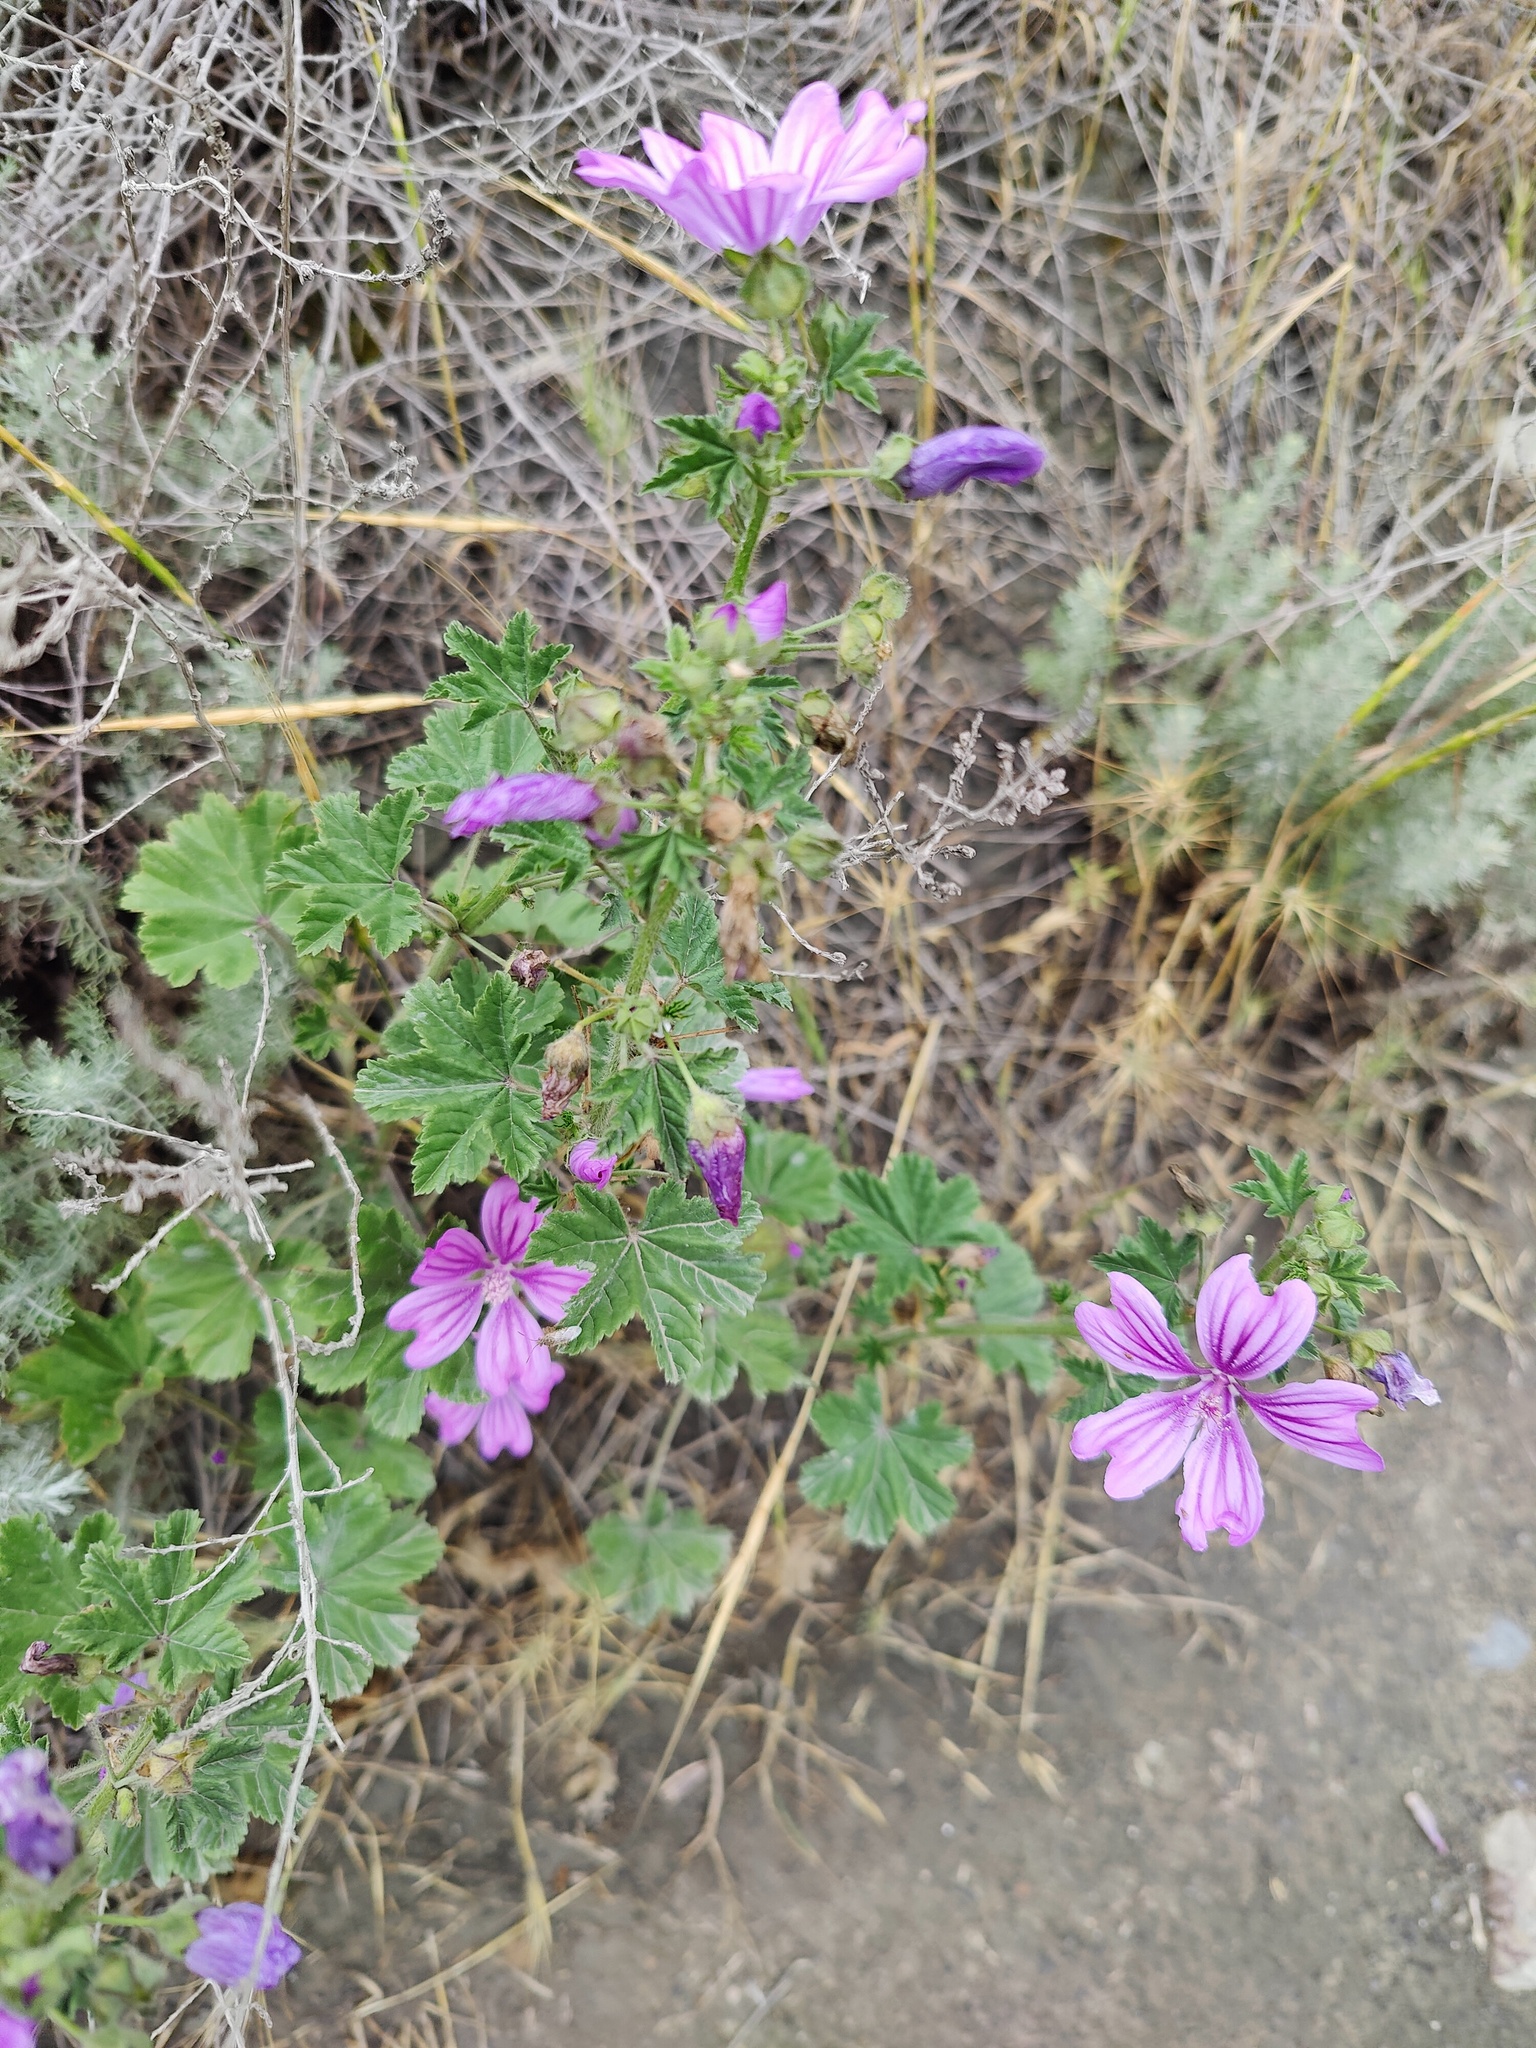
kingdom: Plantae
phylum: Tracheophyta
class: Magnoliopsida
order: Malvales
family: Malvaceae
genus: Malva
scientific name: Malva sylvestris
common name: Common mallow
